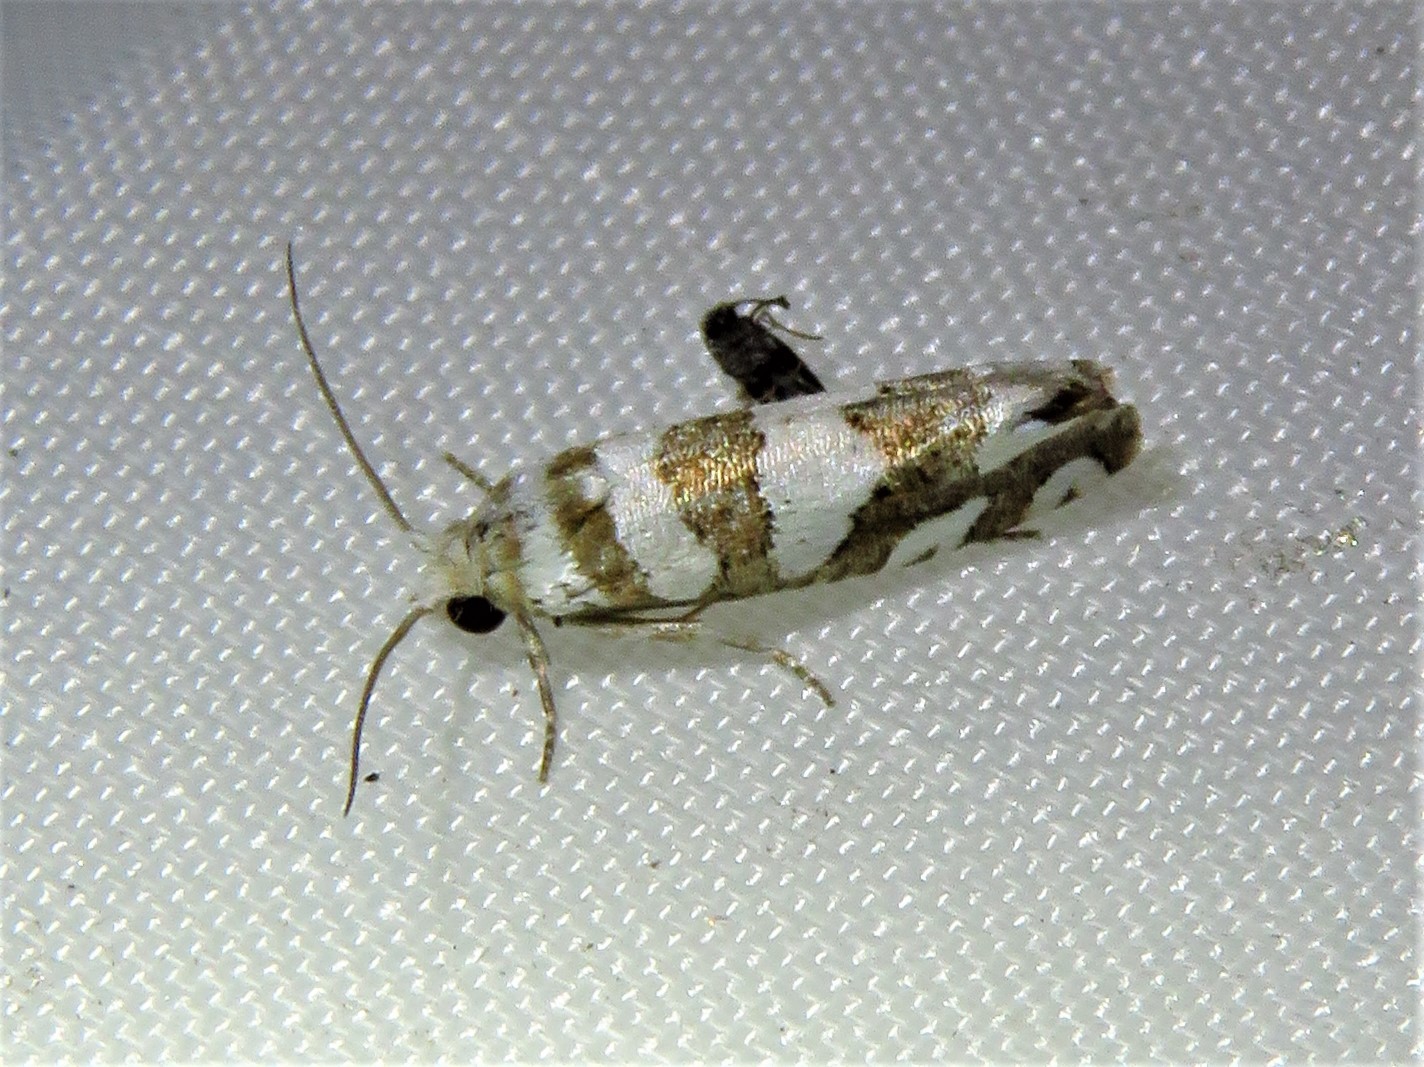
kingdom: Animalia
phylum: Arthropoda
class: Insecta
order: Lepidoptera
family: Tortricidae
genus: Pelochrista
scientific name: Pelochrista robinsonana
